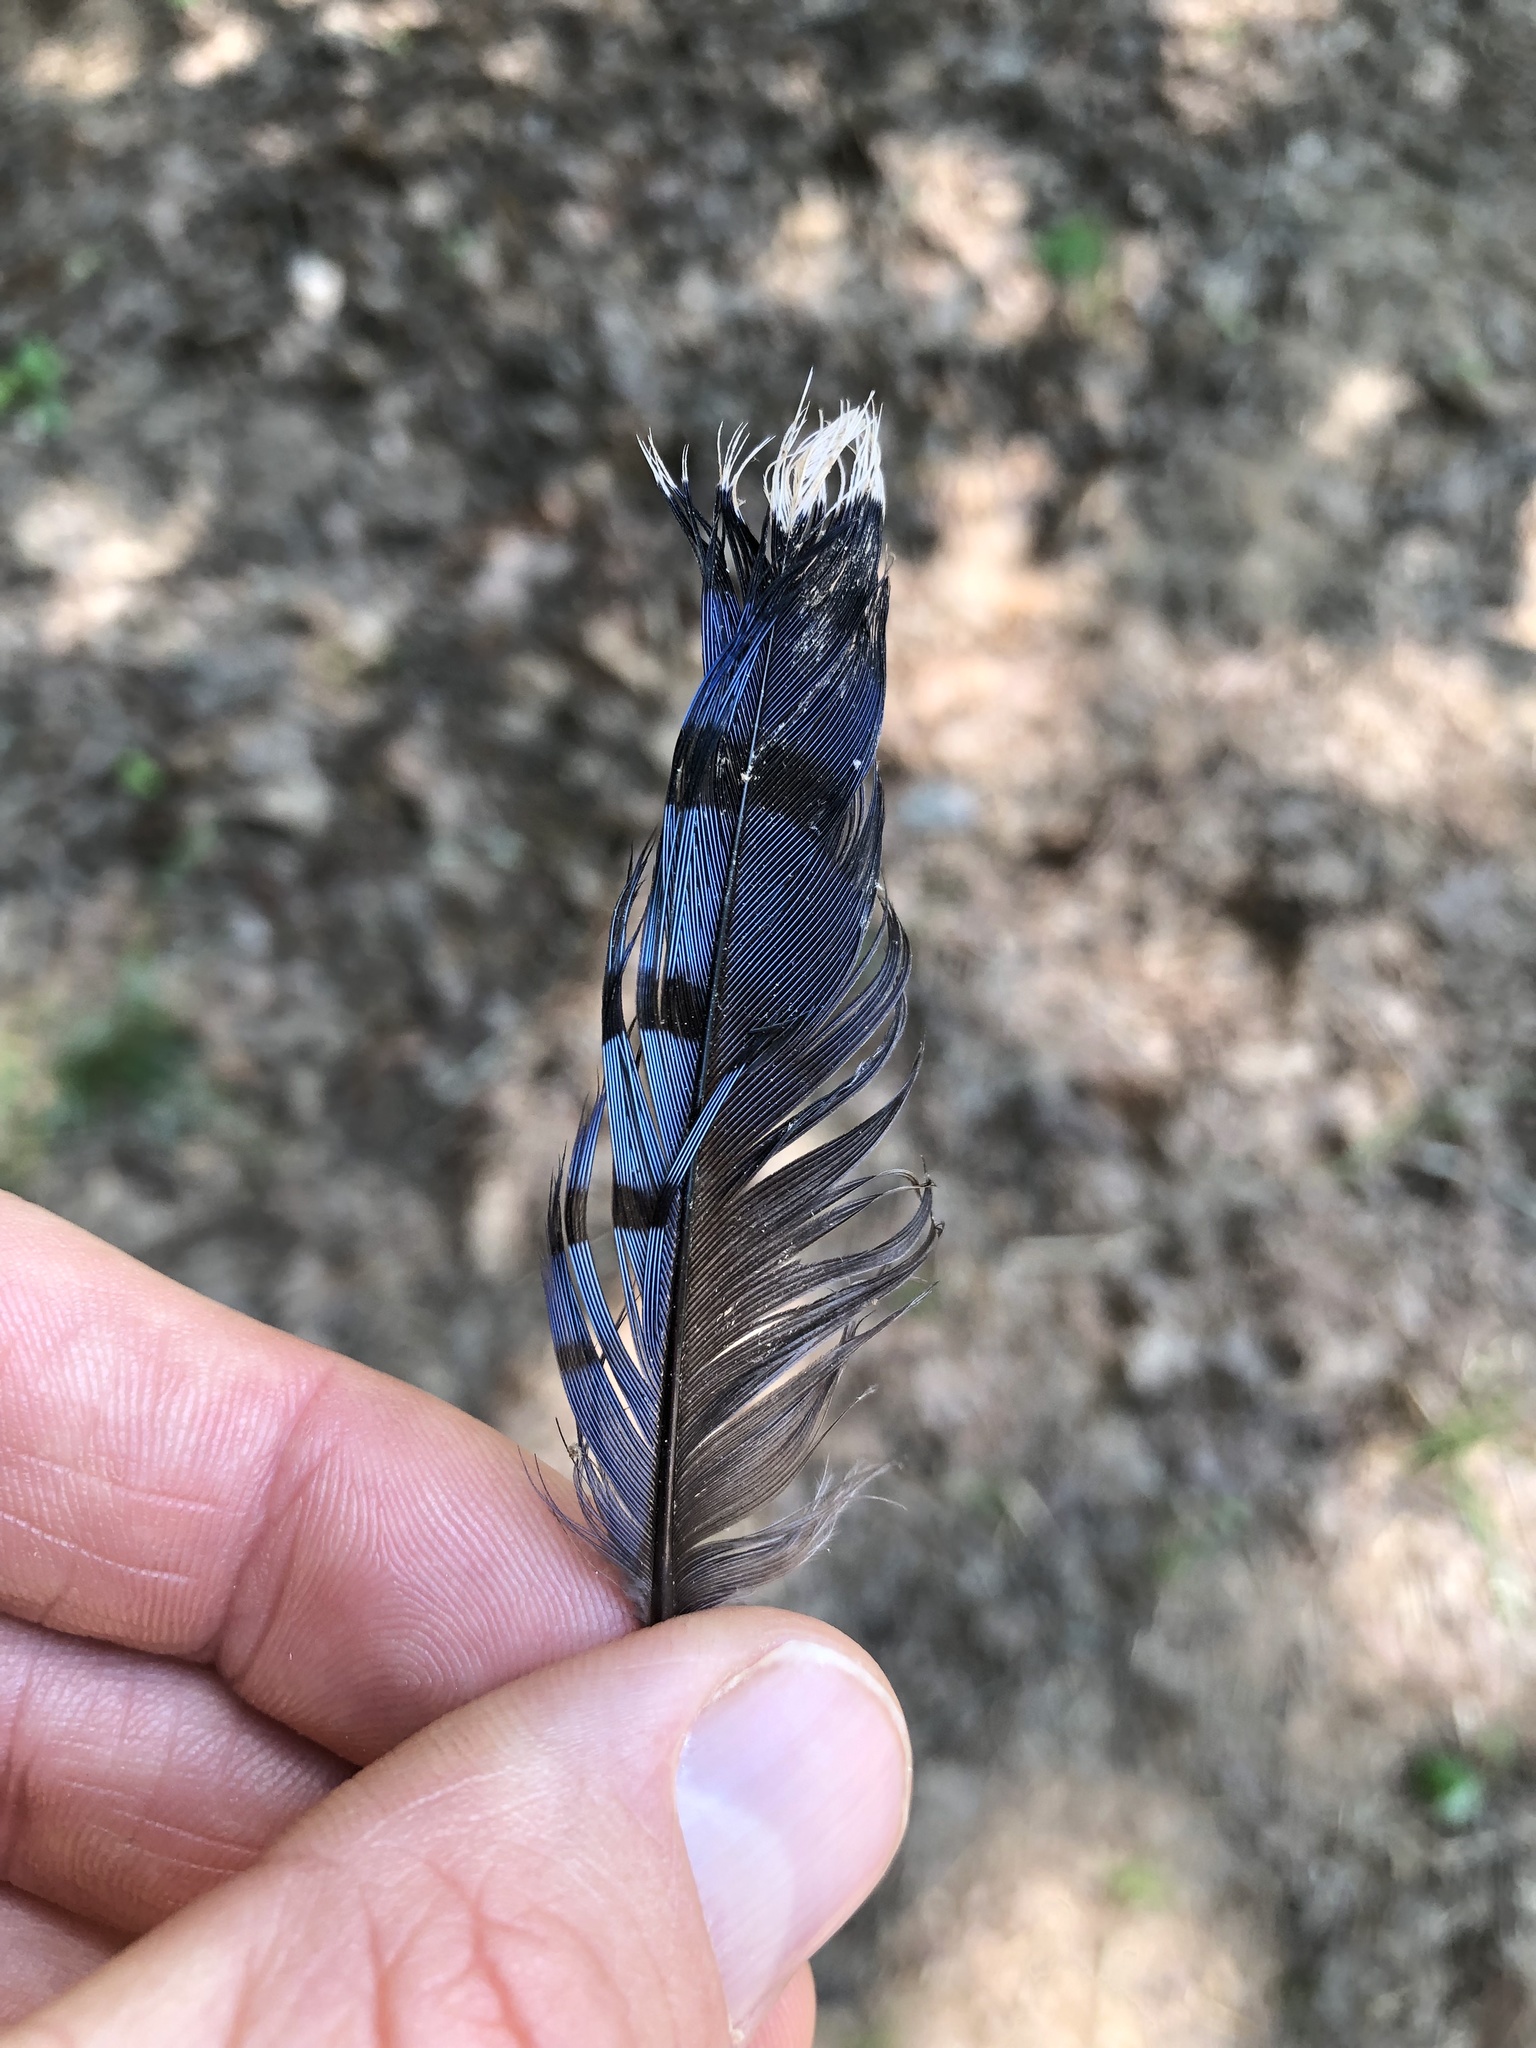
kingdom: Animalia
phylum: Chordata
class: Aves
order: Passeriformes
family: Corvidae
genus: Cyanocitta
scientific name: Cyanocitta cristata
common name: Blue jay
